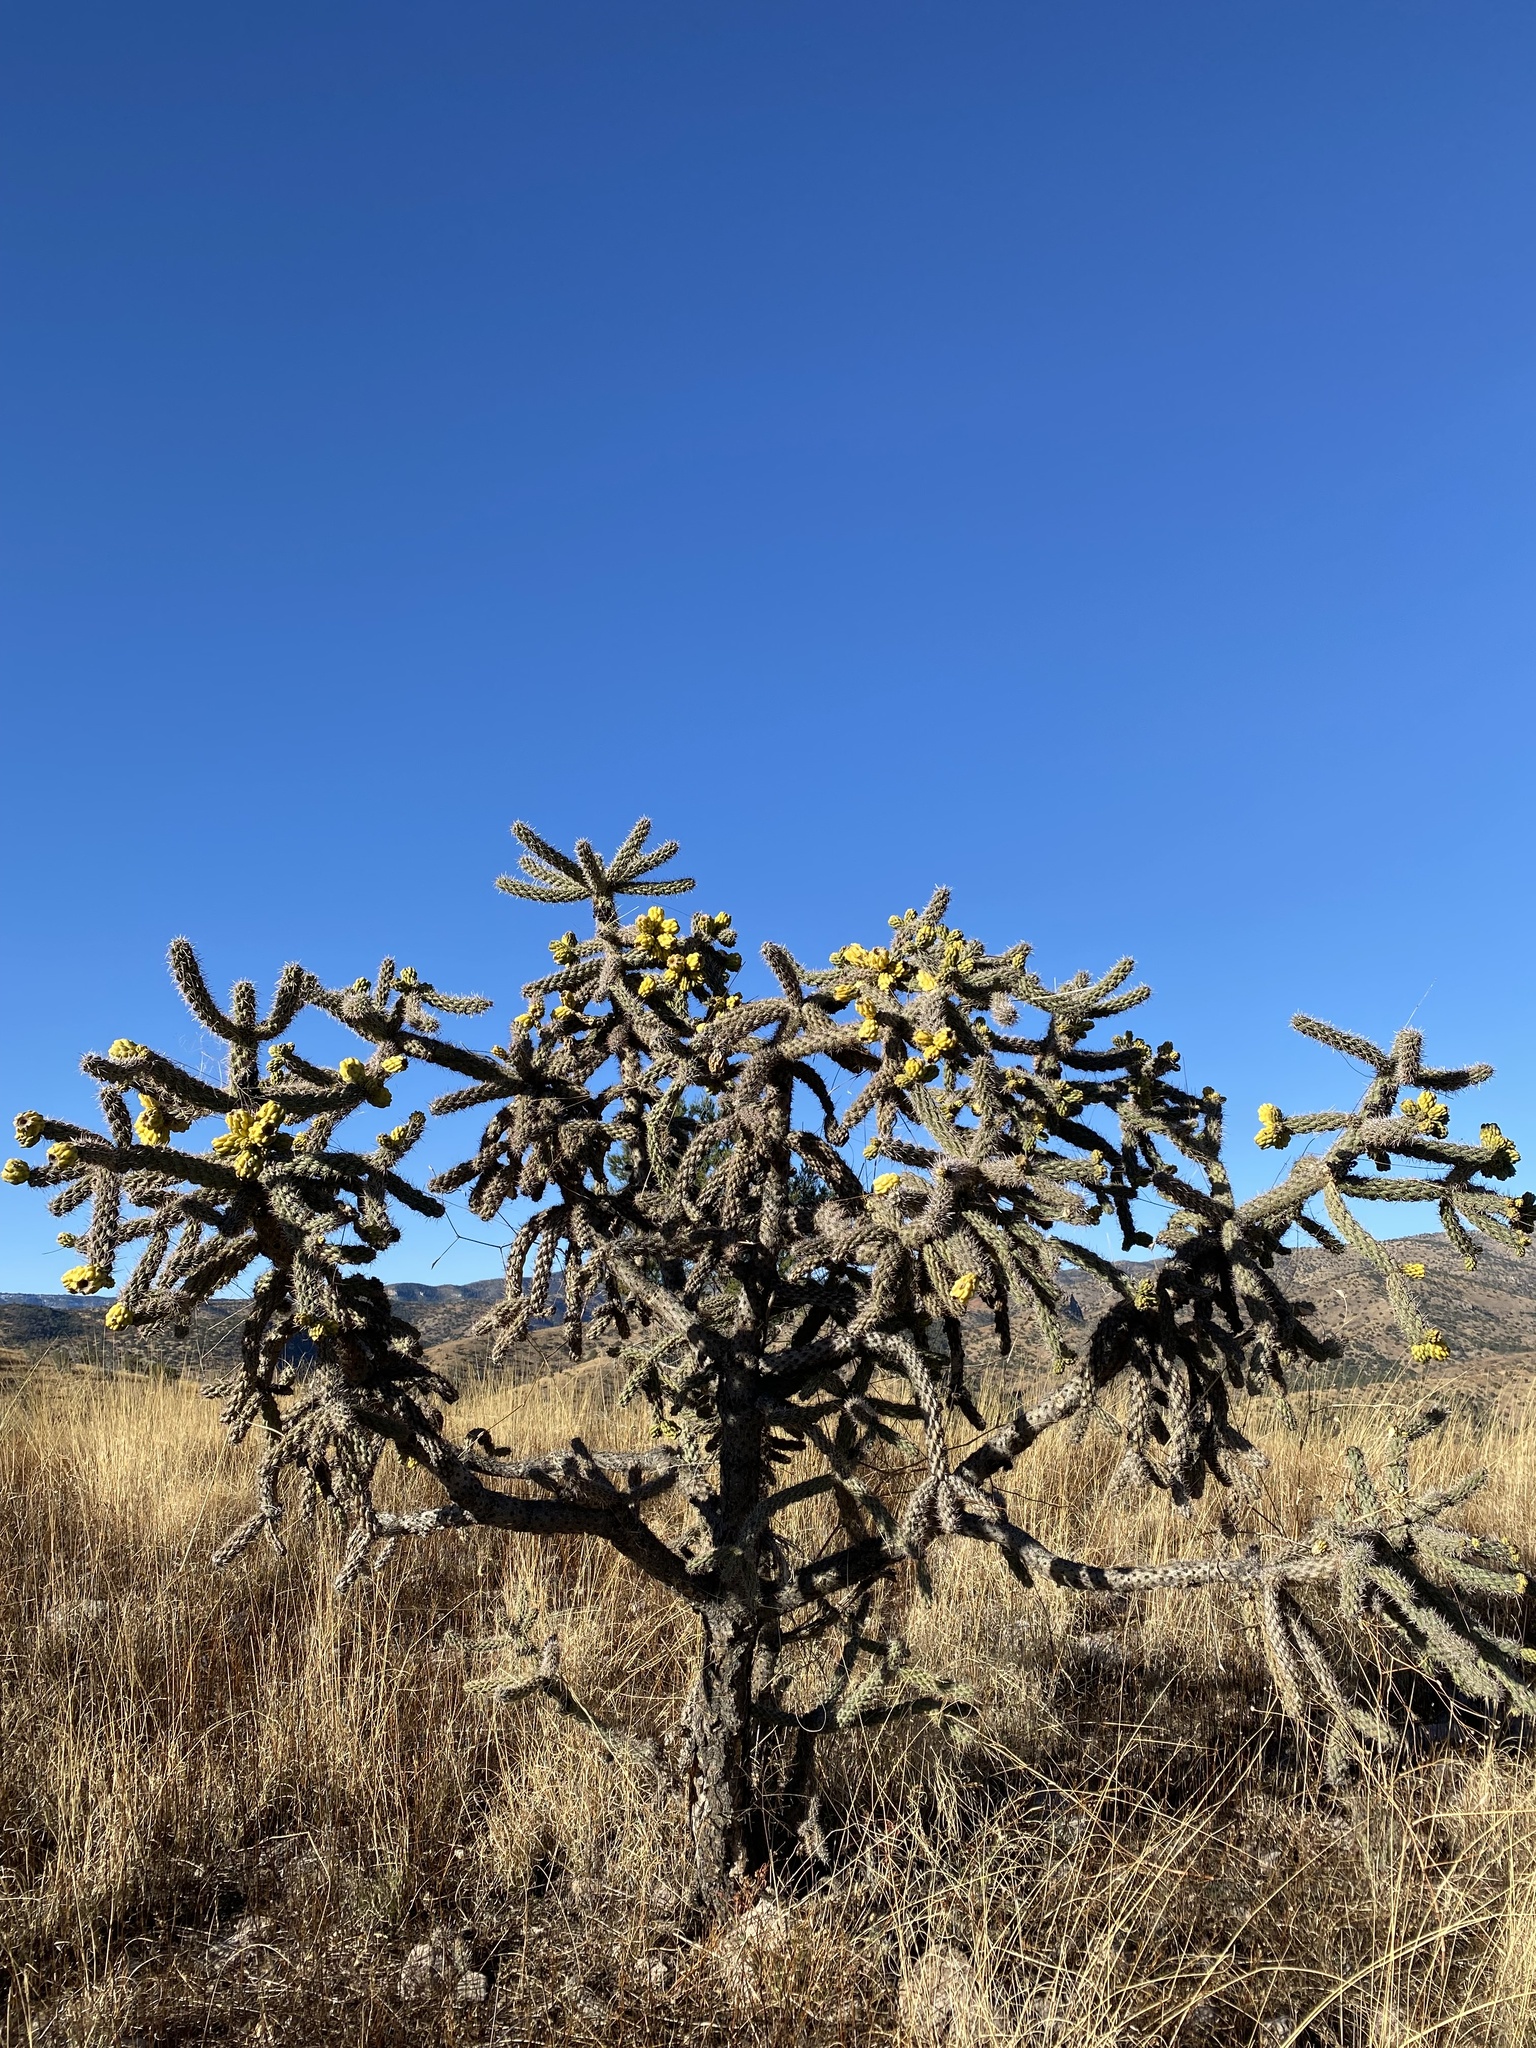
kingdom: Plantae
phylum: Tracheophyta
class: Magnoliopsida
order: Caryophyllales
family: Cactaceae
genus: Cylindropuntia
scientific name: Cylindropuntia imbricata
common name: Candelabrum cactus
